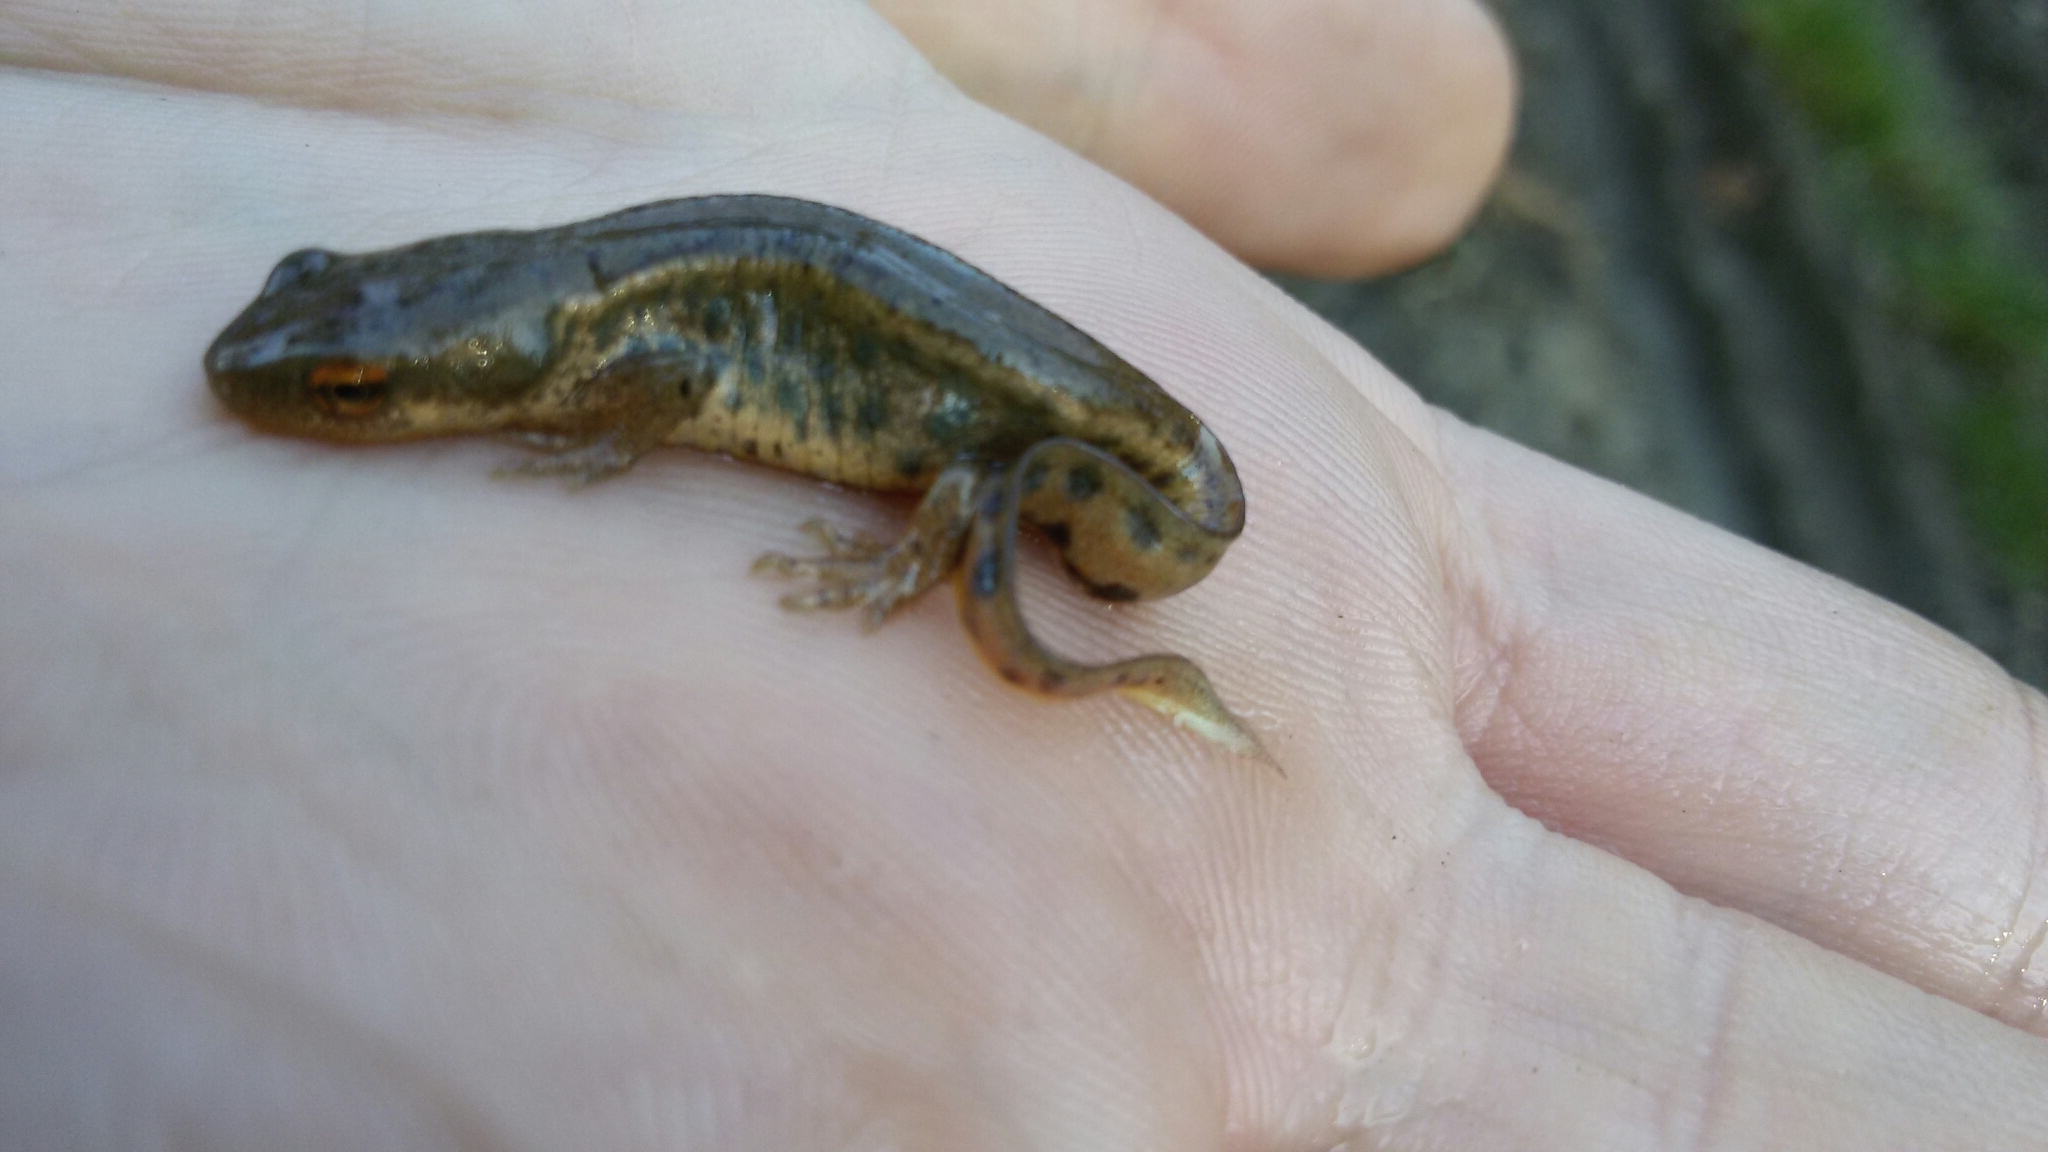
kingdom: Animalia
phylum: Chordata
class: Amphibia
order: Caudata
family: Salamandridae
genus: Lissotriton
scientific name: Lissotriton italicus
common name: Italian newt
